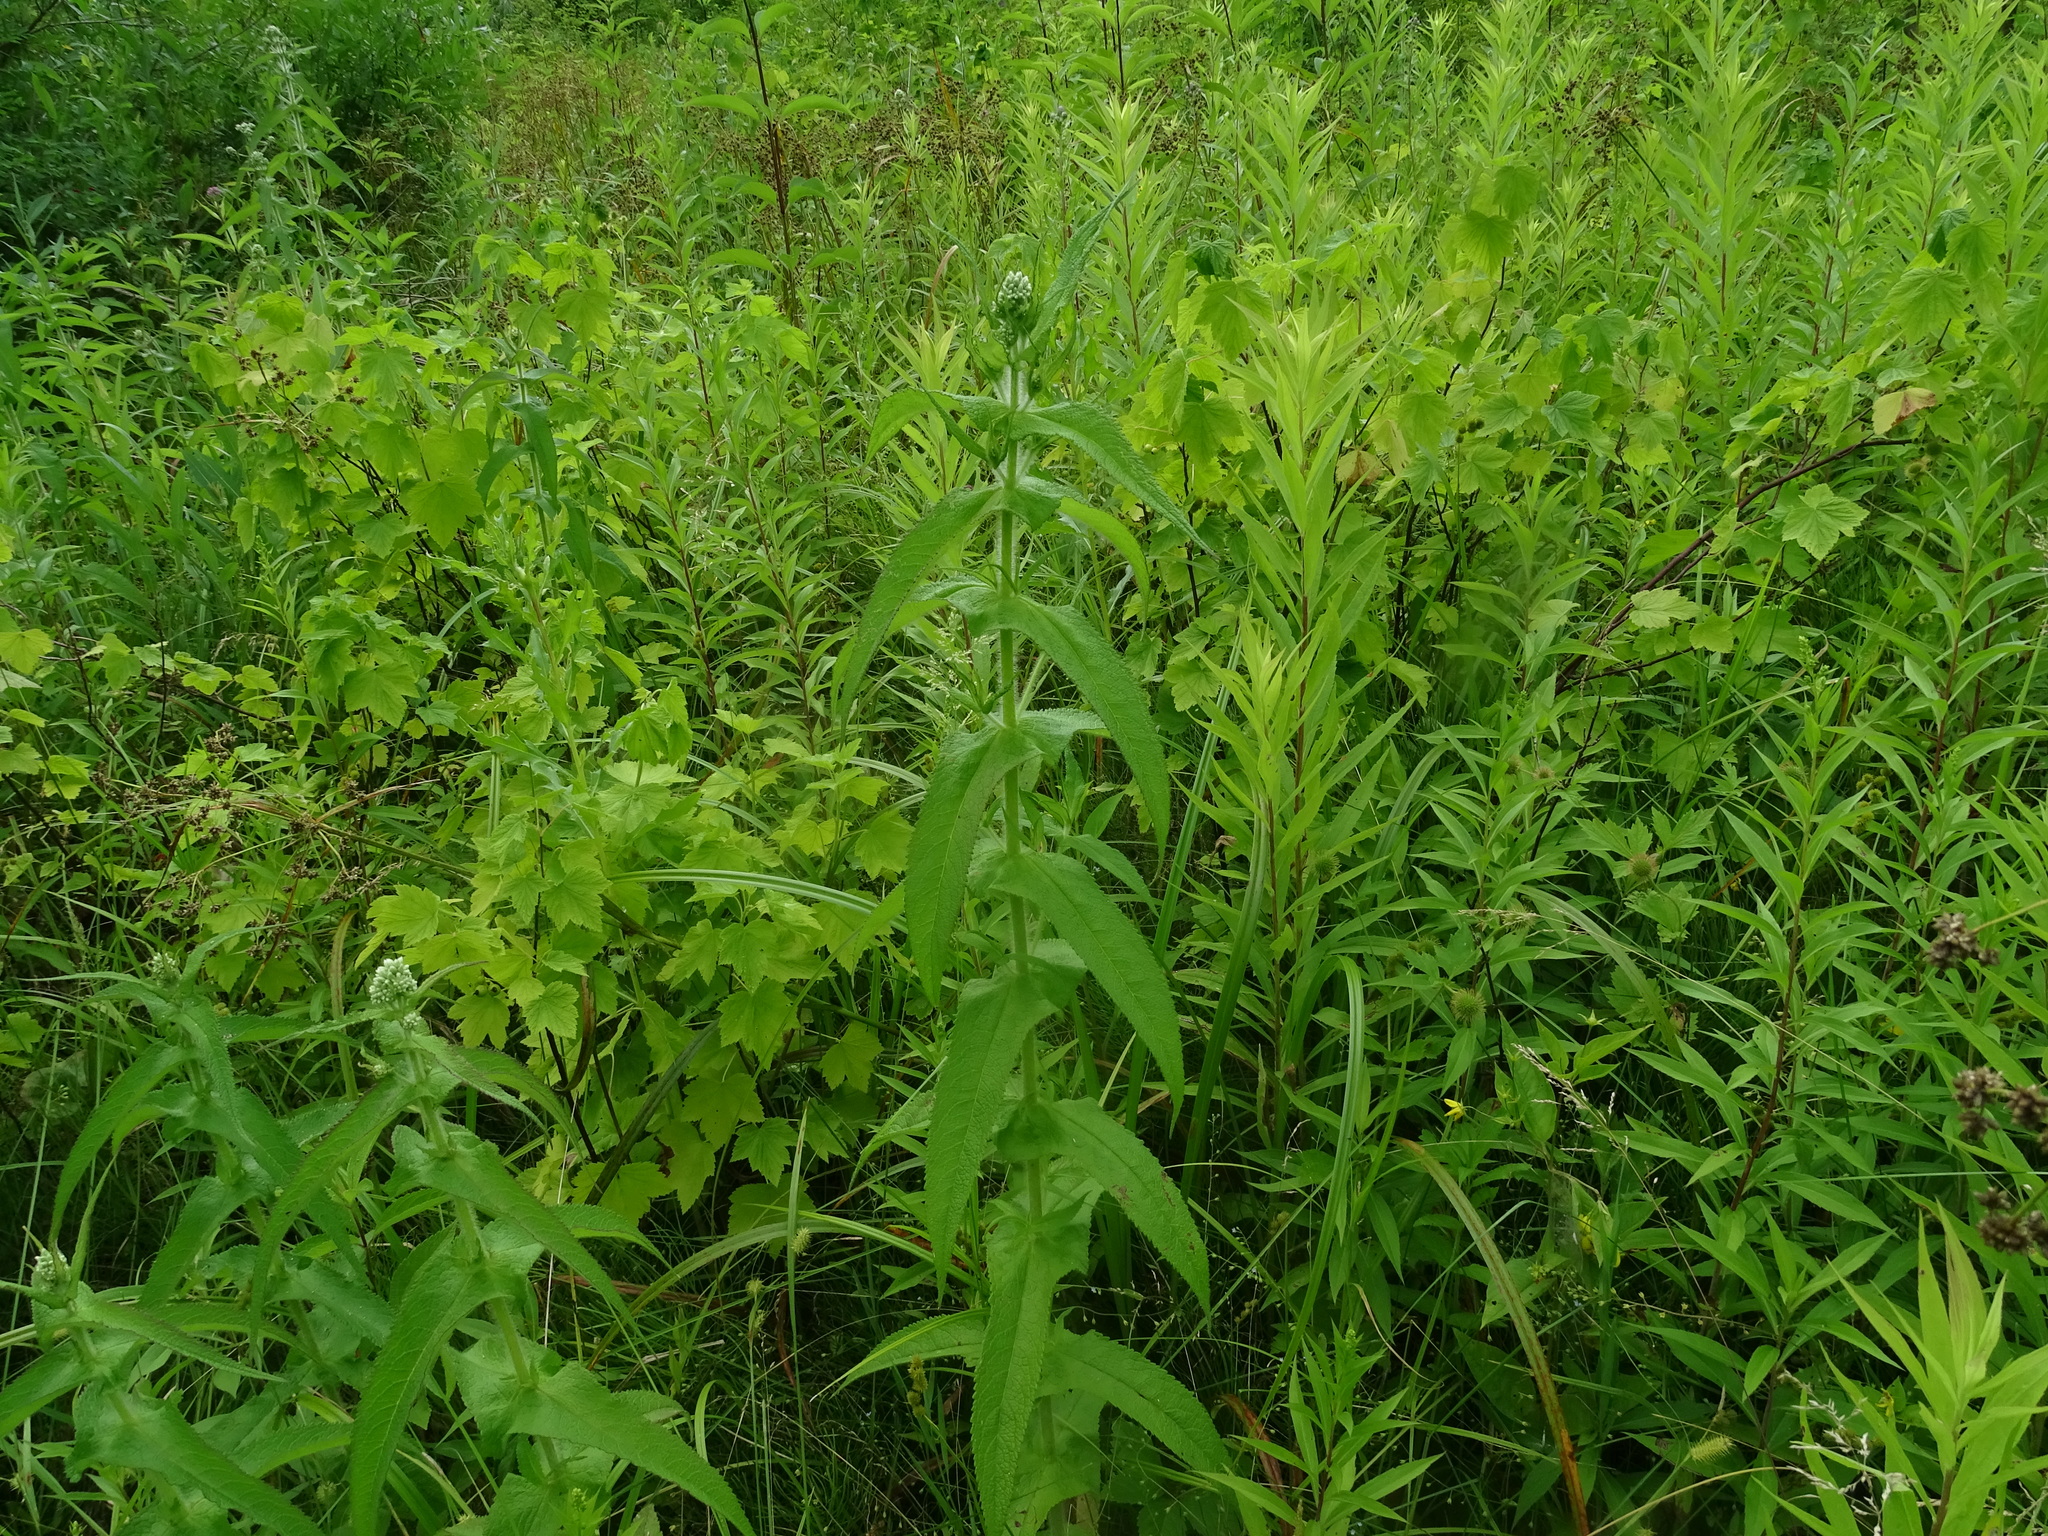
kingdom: Plantae
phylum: Tracheophyta
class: Magnoliopsida
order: Asterales
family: Asteraceae
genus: Eupatorium
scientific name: Eupatorium perfoliatum
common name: Boneset
